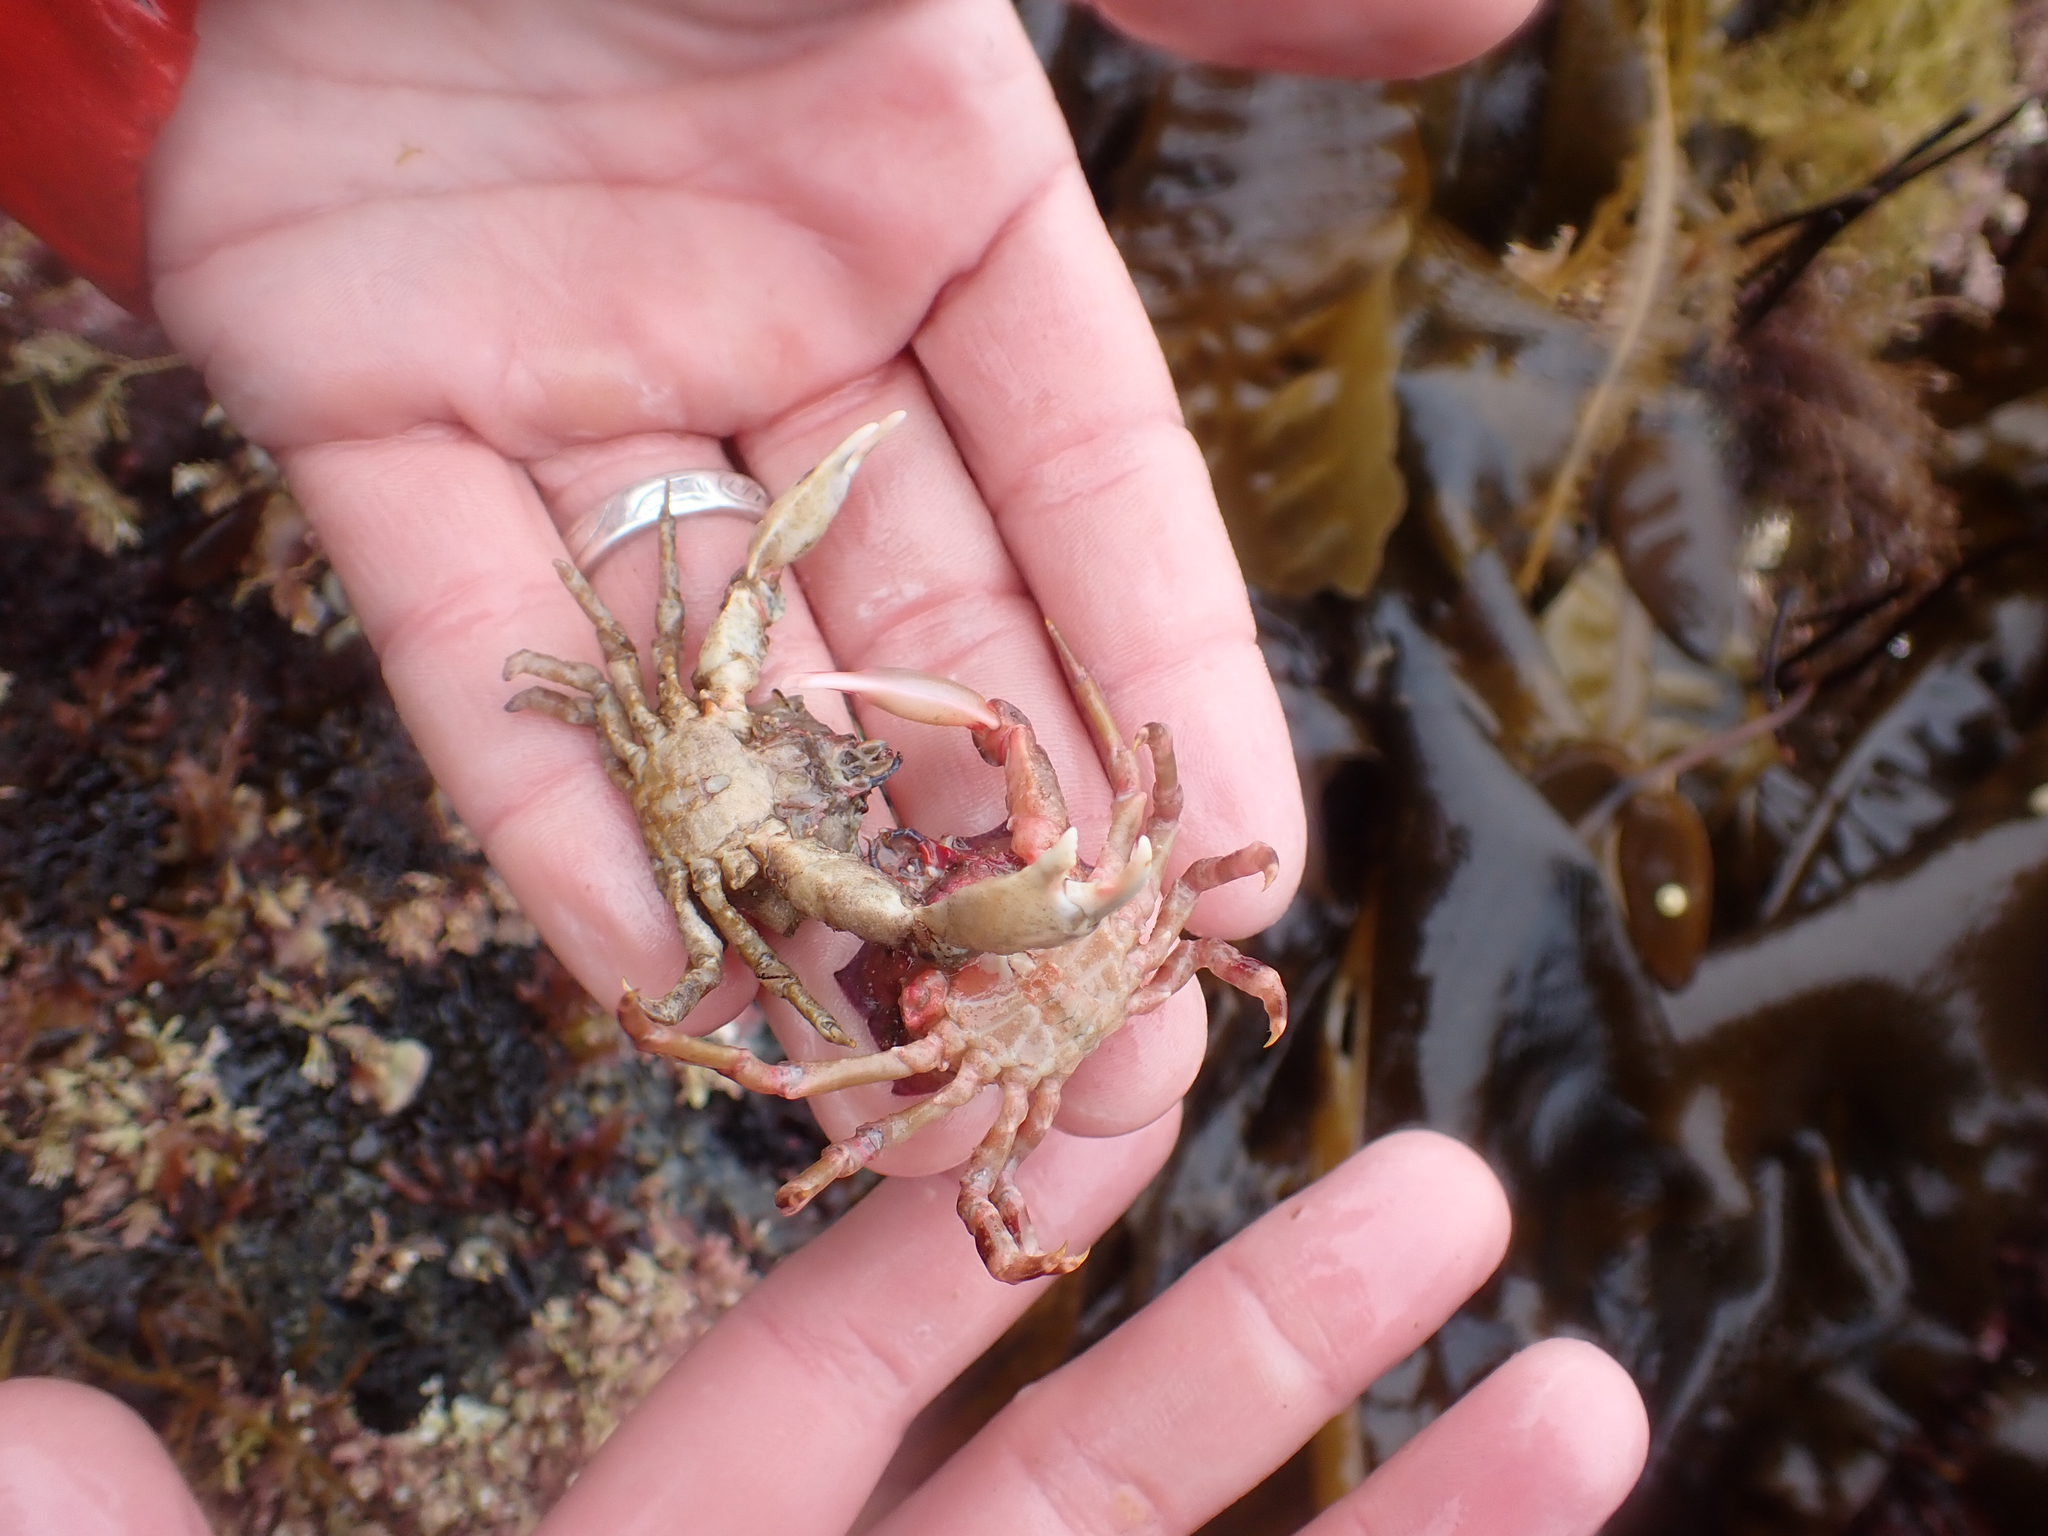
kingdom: Animalia
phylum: Arthropoda
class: Malacostraca
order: Decapoda
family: Epialtidae
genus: Pugettia
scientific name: Pugettia foliata
